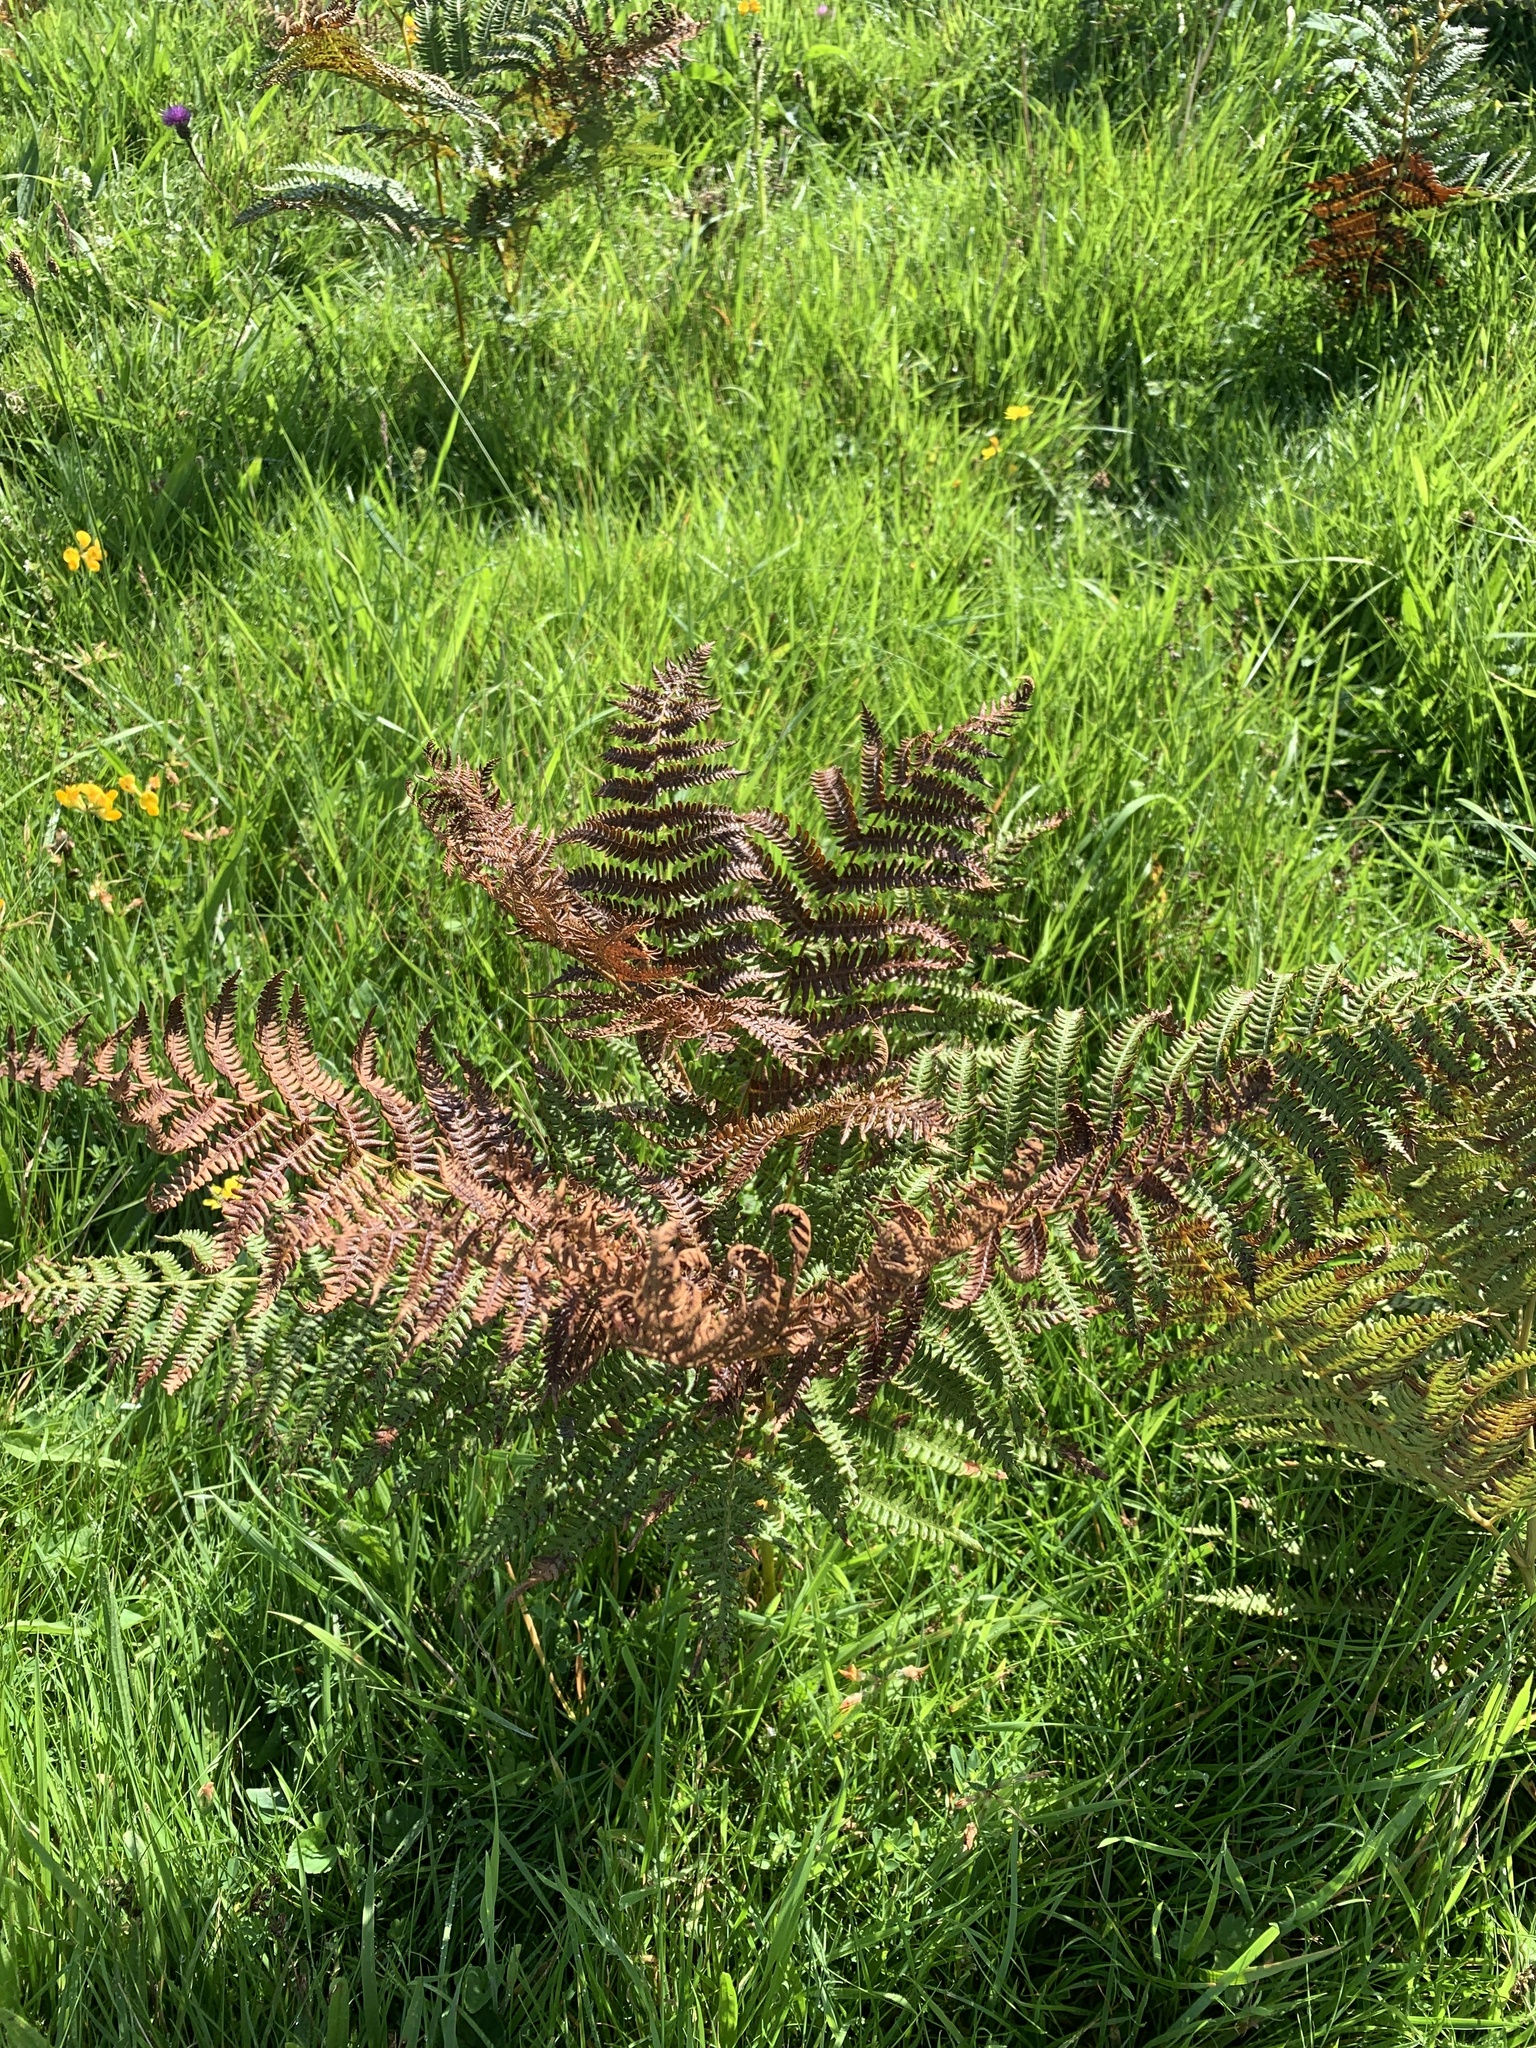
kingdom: Plantae
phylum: Tracheophyta
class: Polypodiopsida
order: Polypodiales
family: Dennstaedtiaceae
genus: Pteridium
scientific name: Pteridium aquilinum
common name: Bracken
